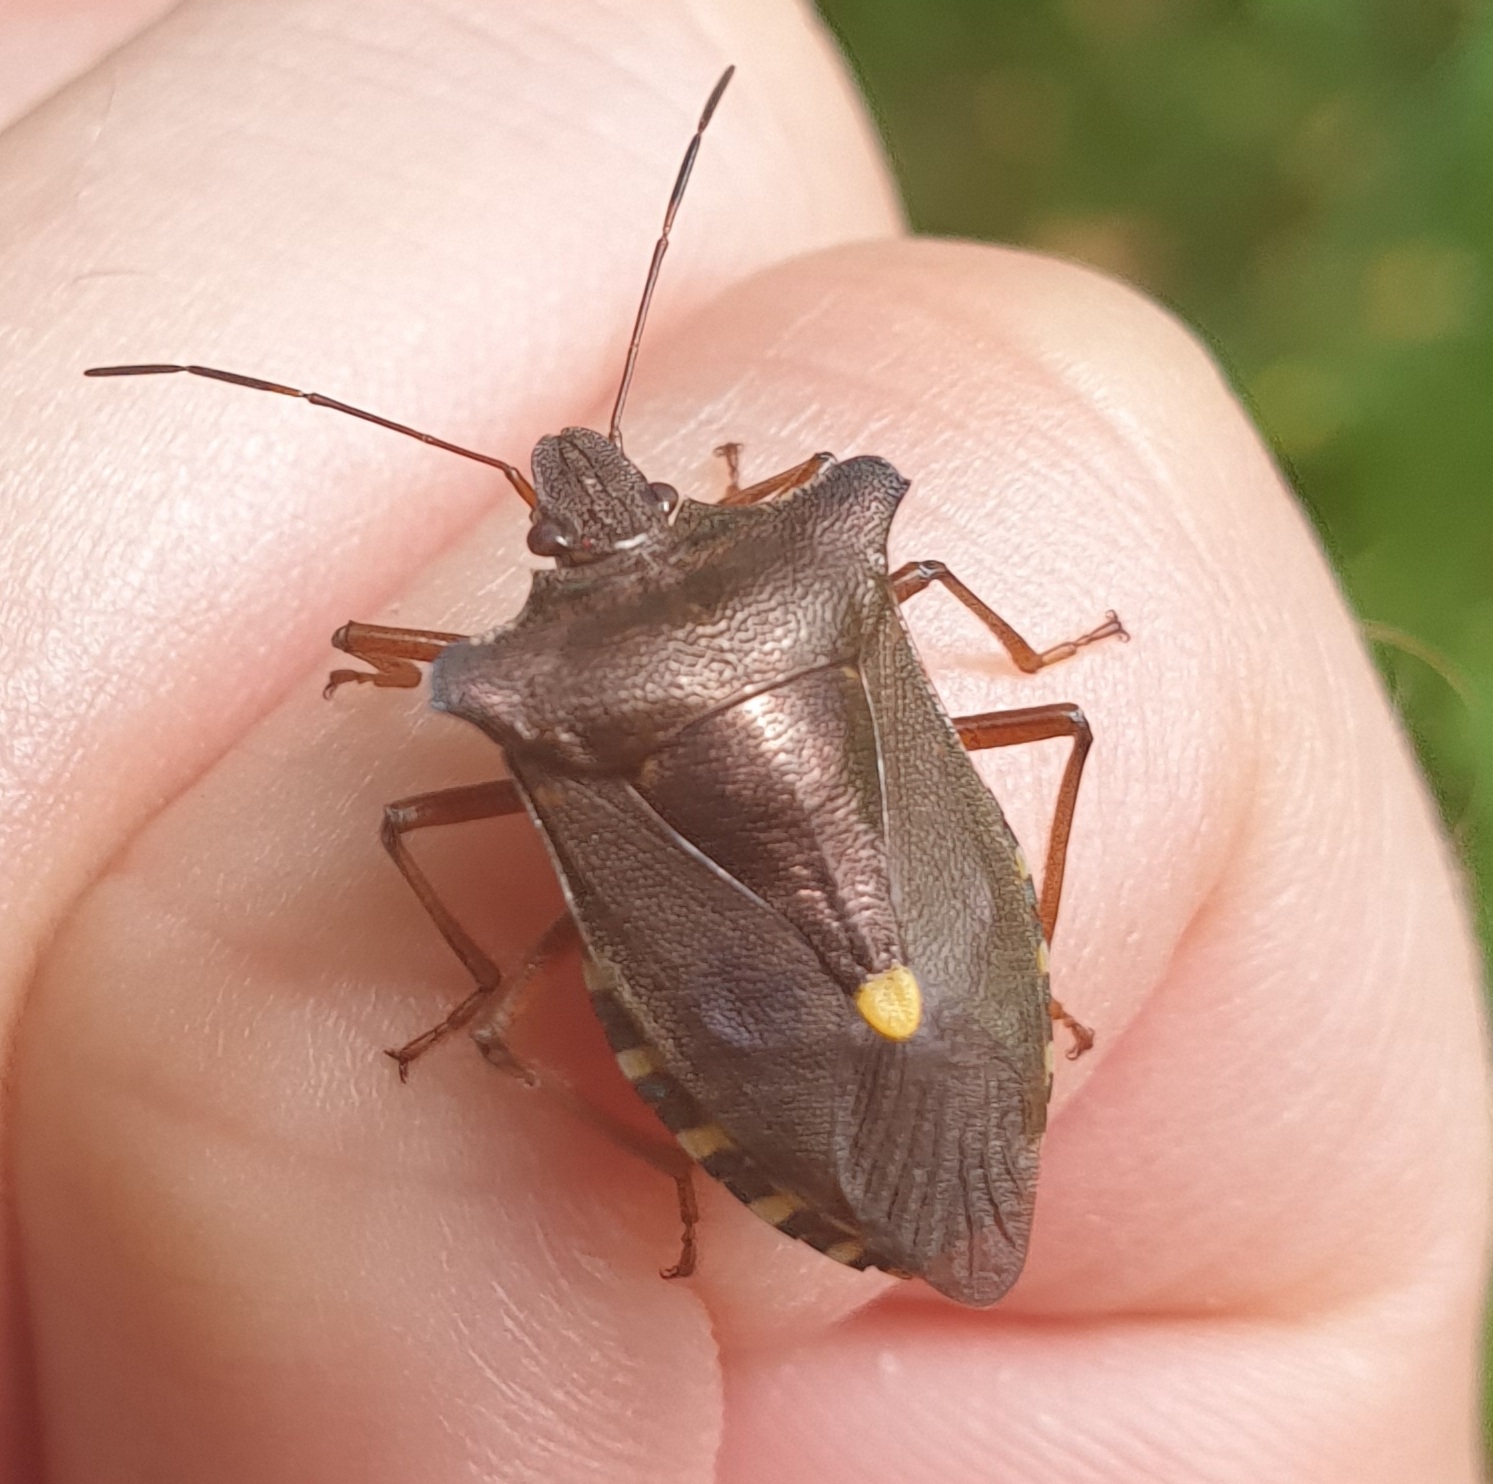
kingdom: Animalia
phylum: Arthropoda
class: Insecta
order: Hemiptera
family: Pentatomidae
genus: Pentatoma
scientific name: Pentatoma rufipes
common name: Forest bug
